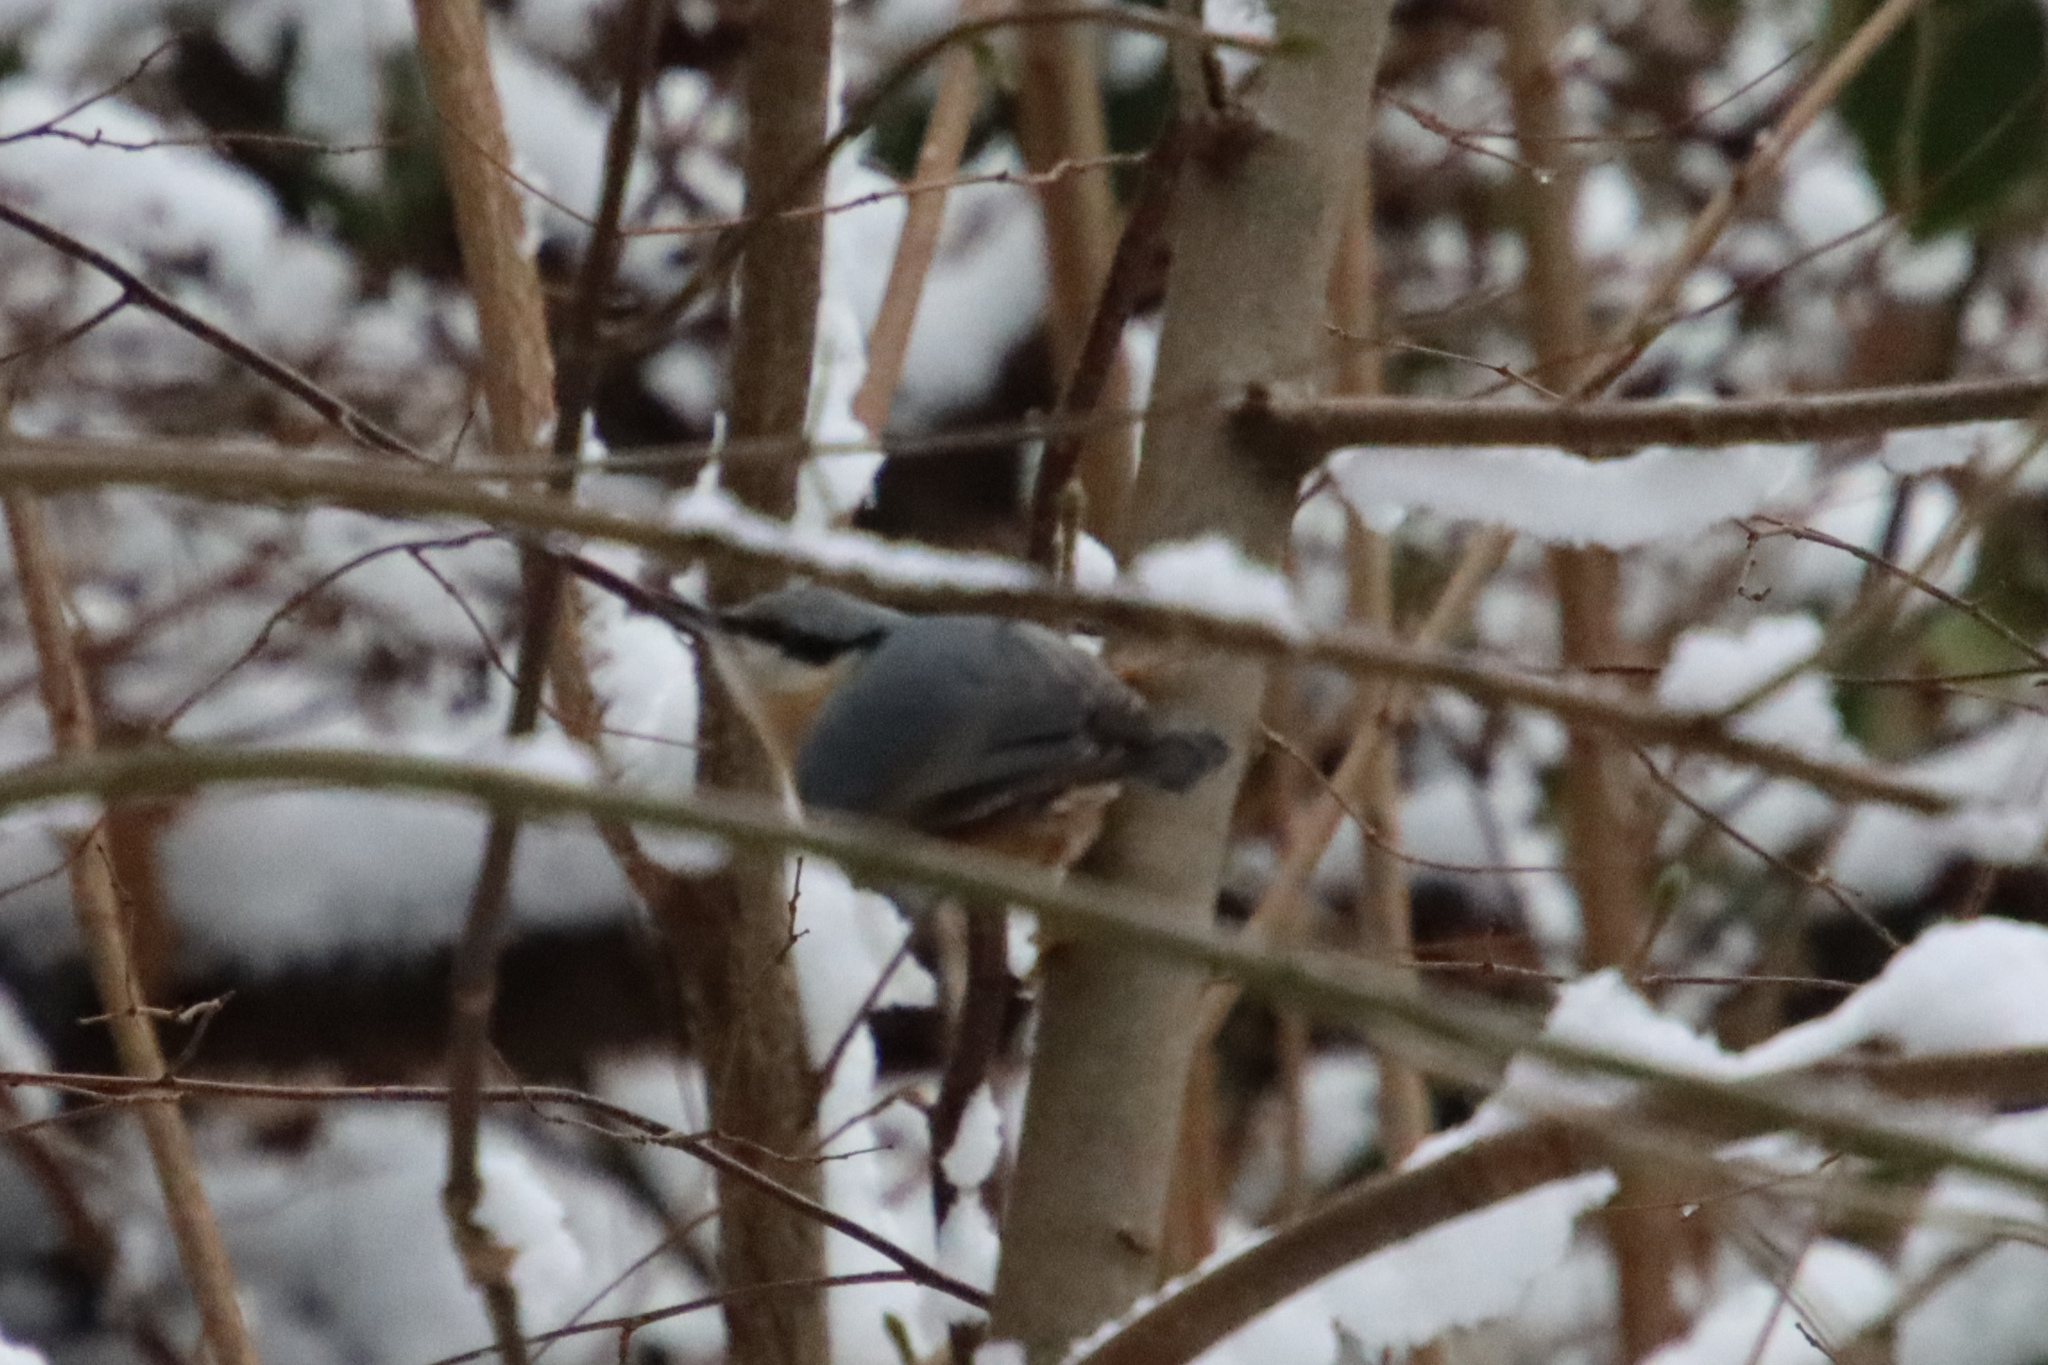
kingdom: Animalia
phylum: Chordata
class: Aves
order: Passeriformes
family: Sittidae
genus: Sitta
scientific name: Sitta europaea
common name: Eurasian nuthatch
